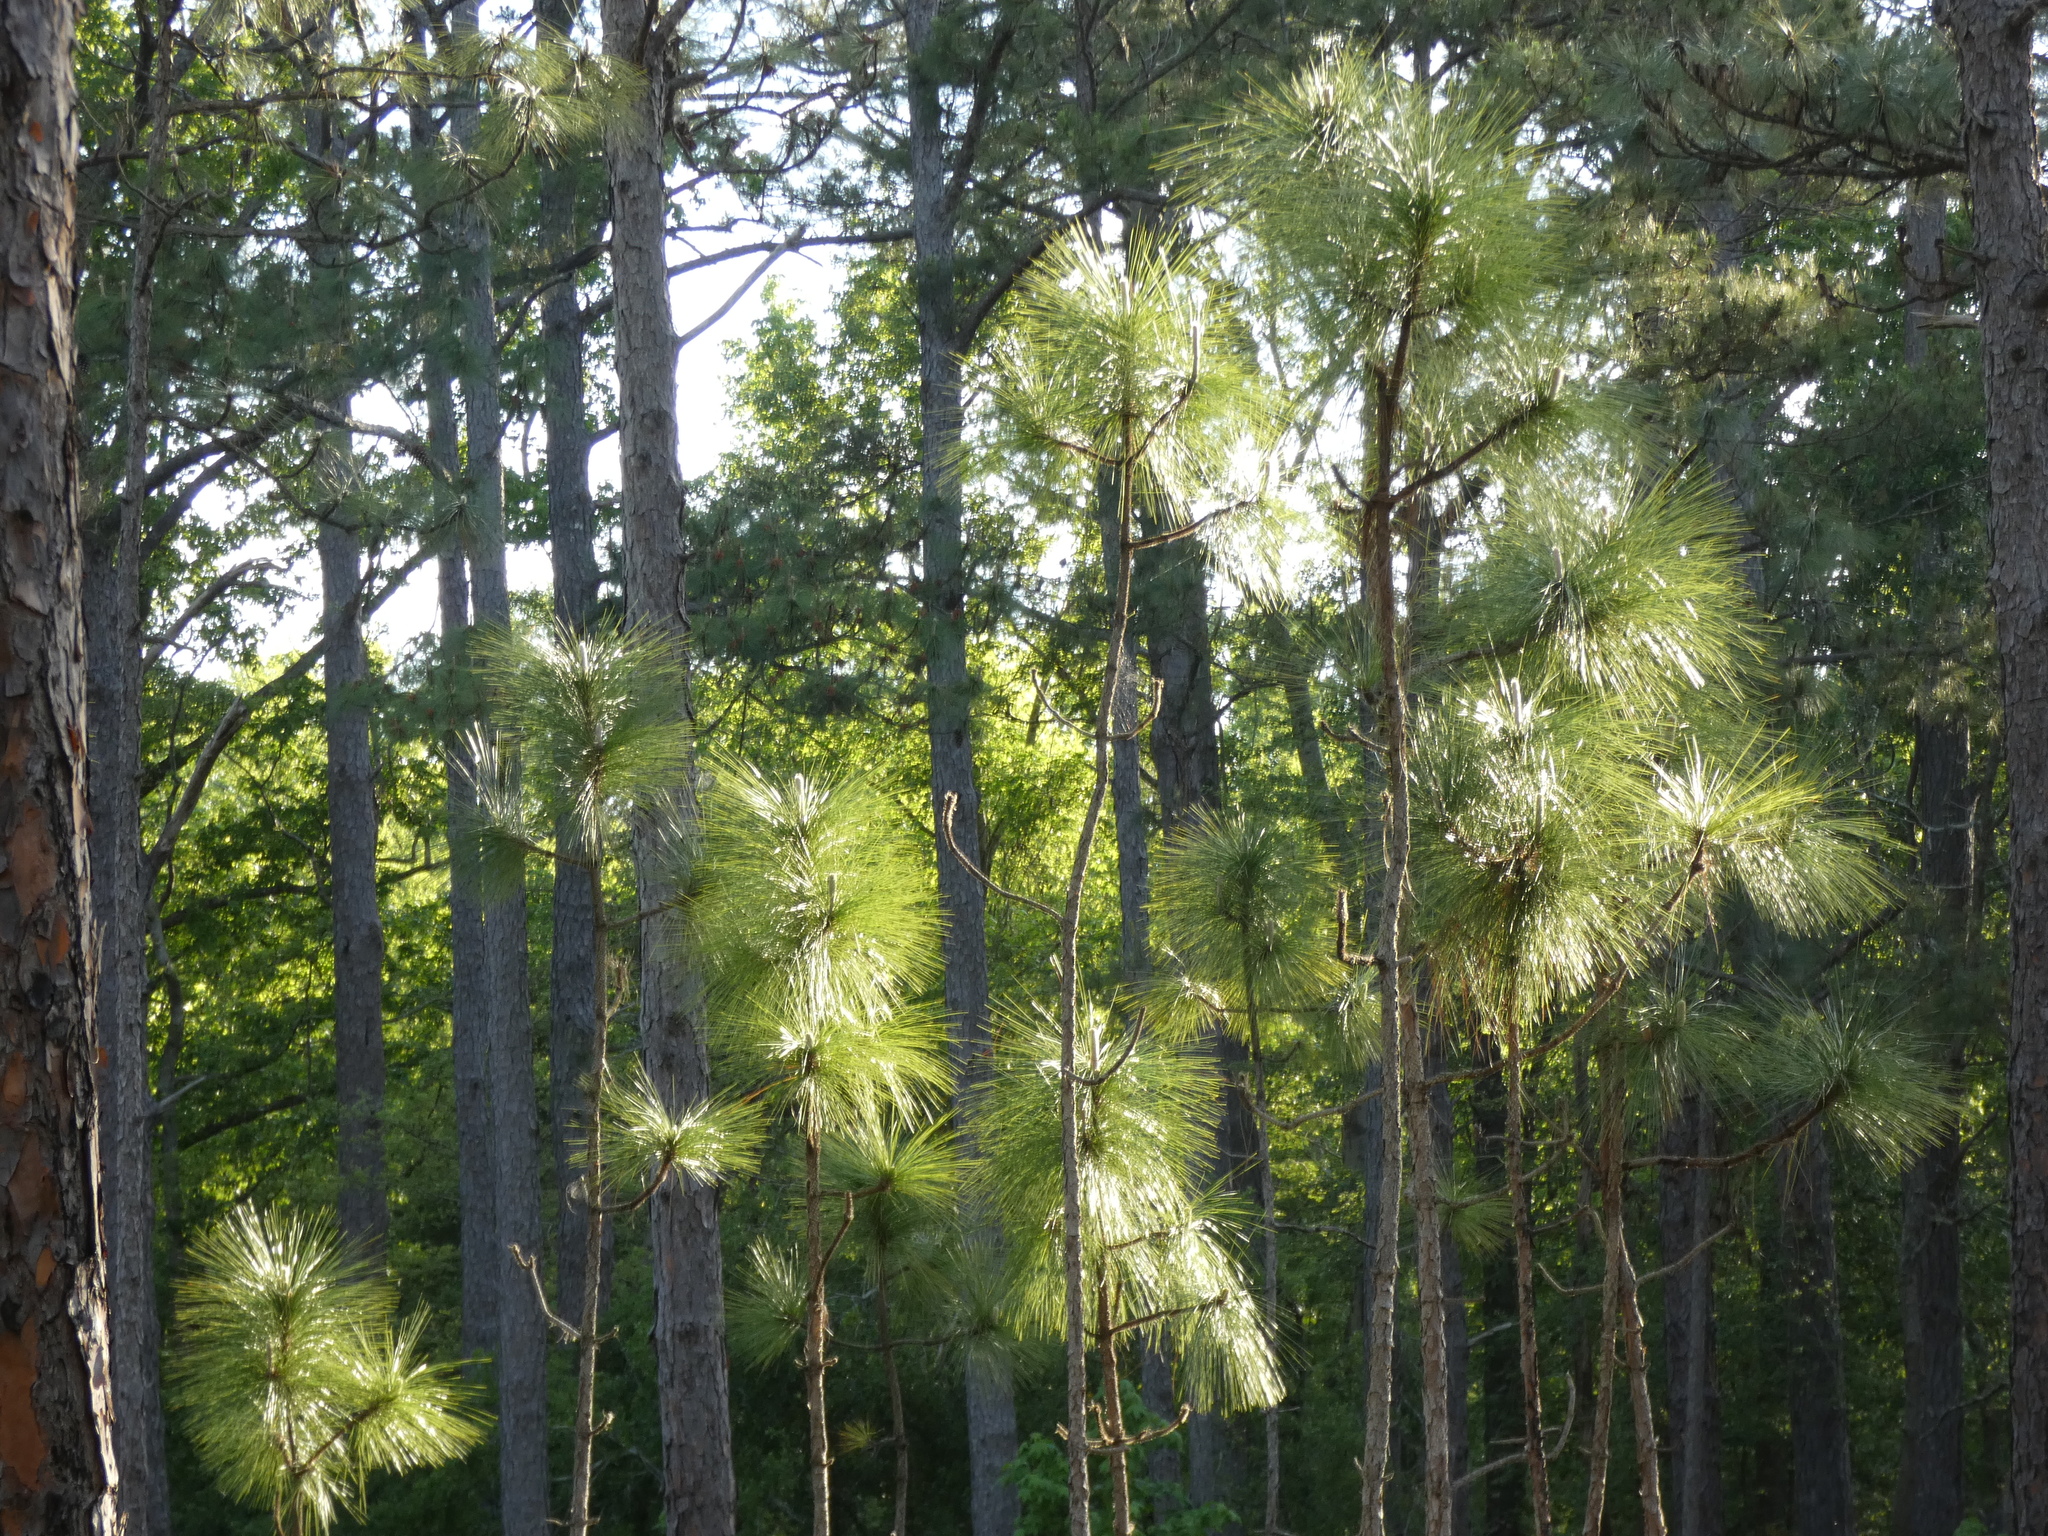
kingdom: Plantae
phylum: Tracheophyta
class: Pinopsida
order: Pinales
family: Pinaceae
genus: Pinus
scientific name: Pinus palustris
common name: Longleaf pine
